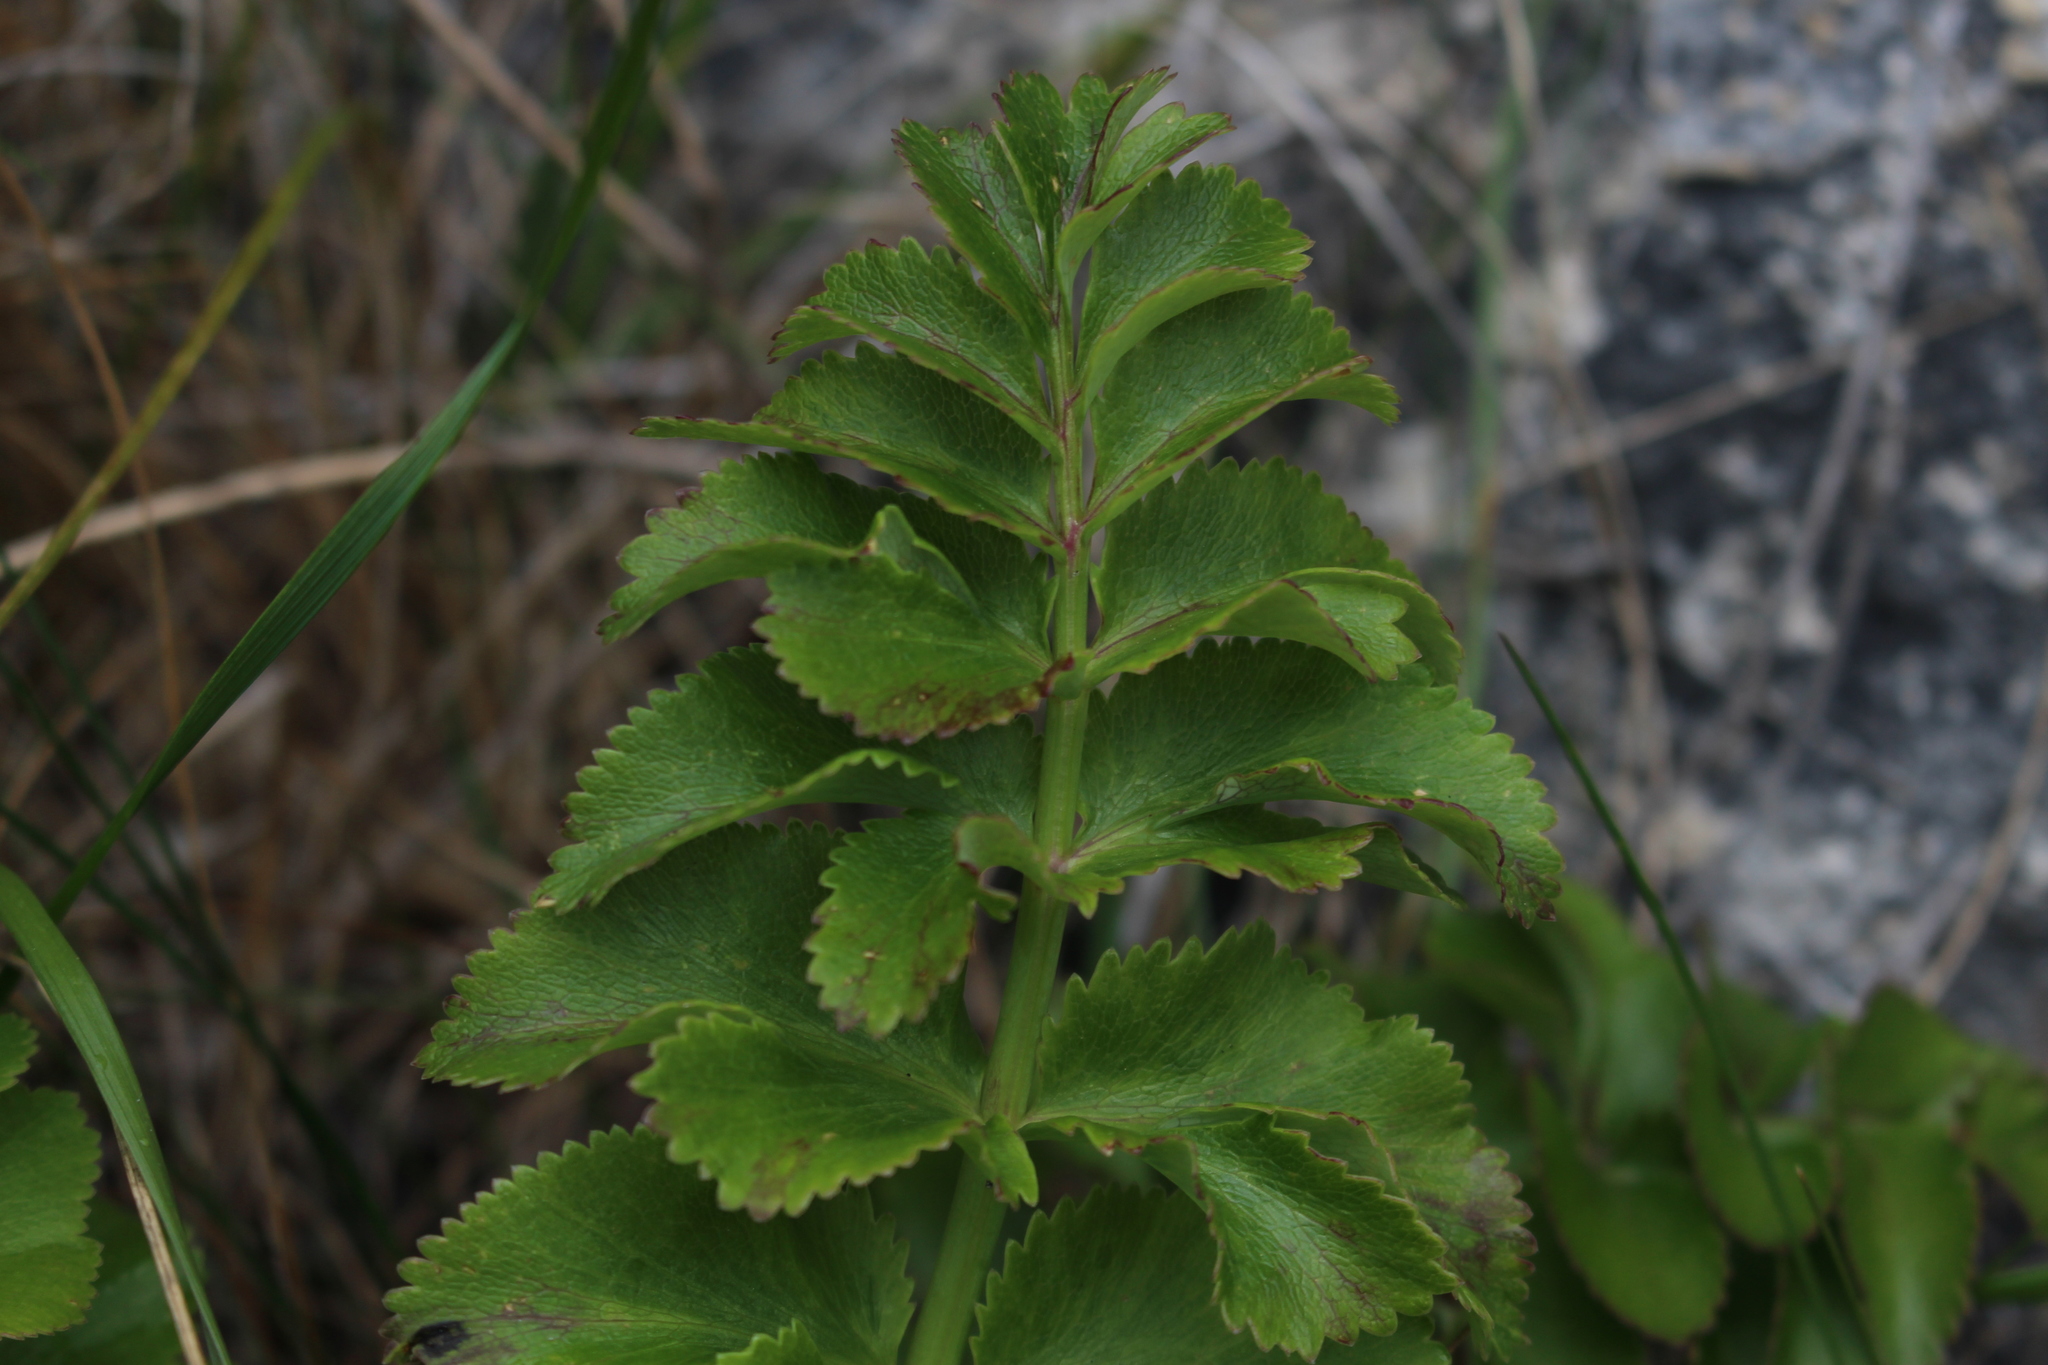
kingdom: Plantae
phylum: Tracheophyta
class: Magnoliopsida
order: Apiales
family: Apiaceae
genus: Gingidia
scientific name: Gingidia montana
